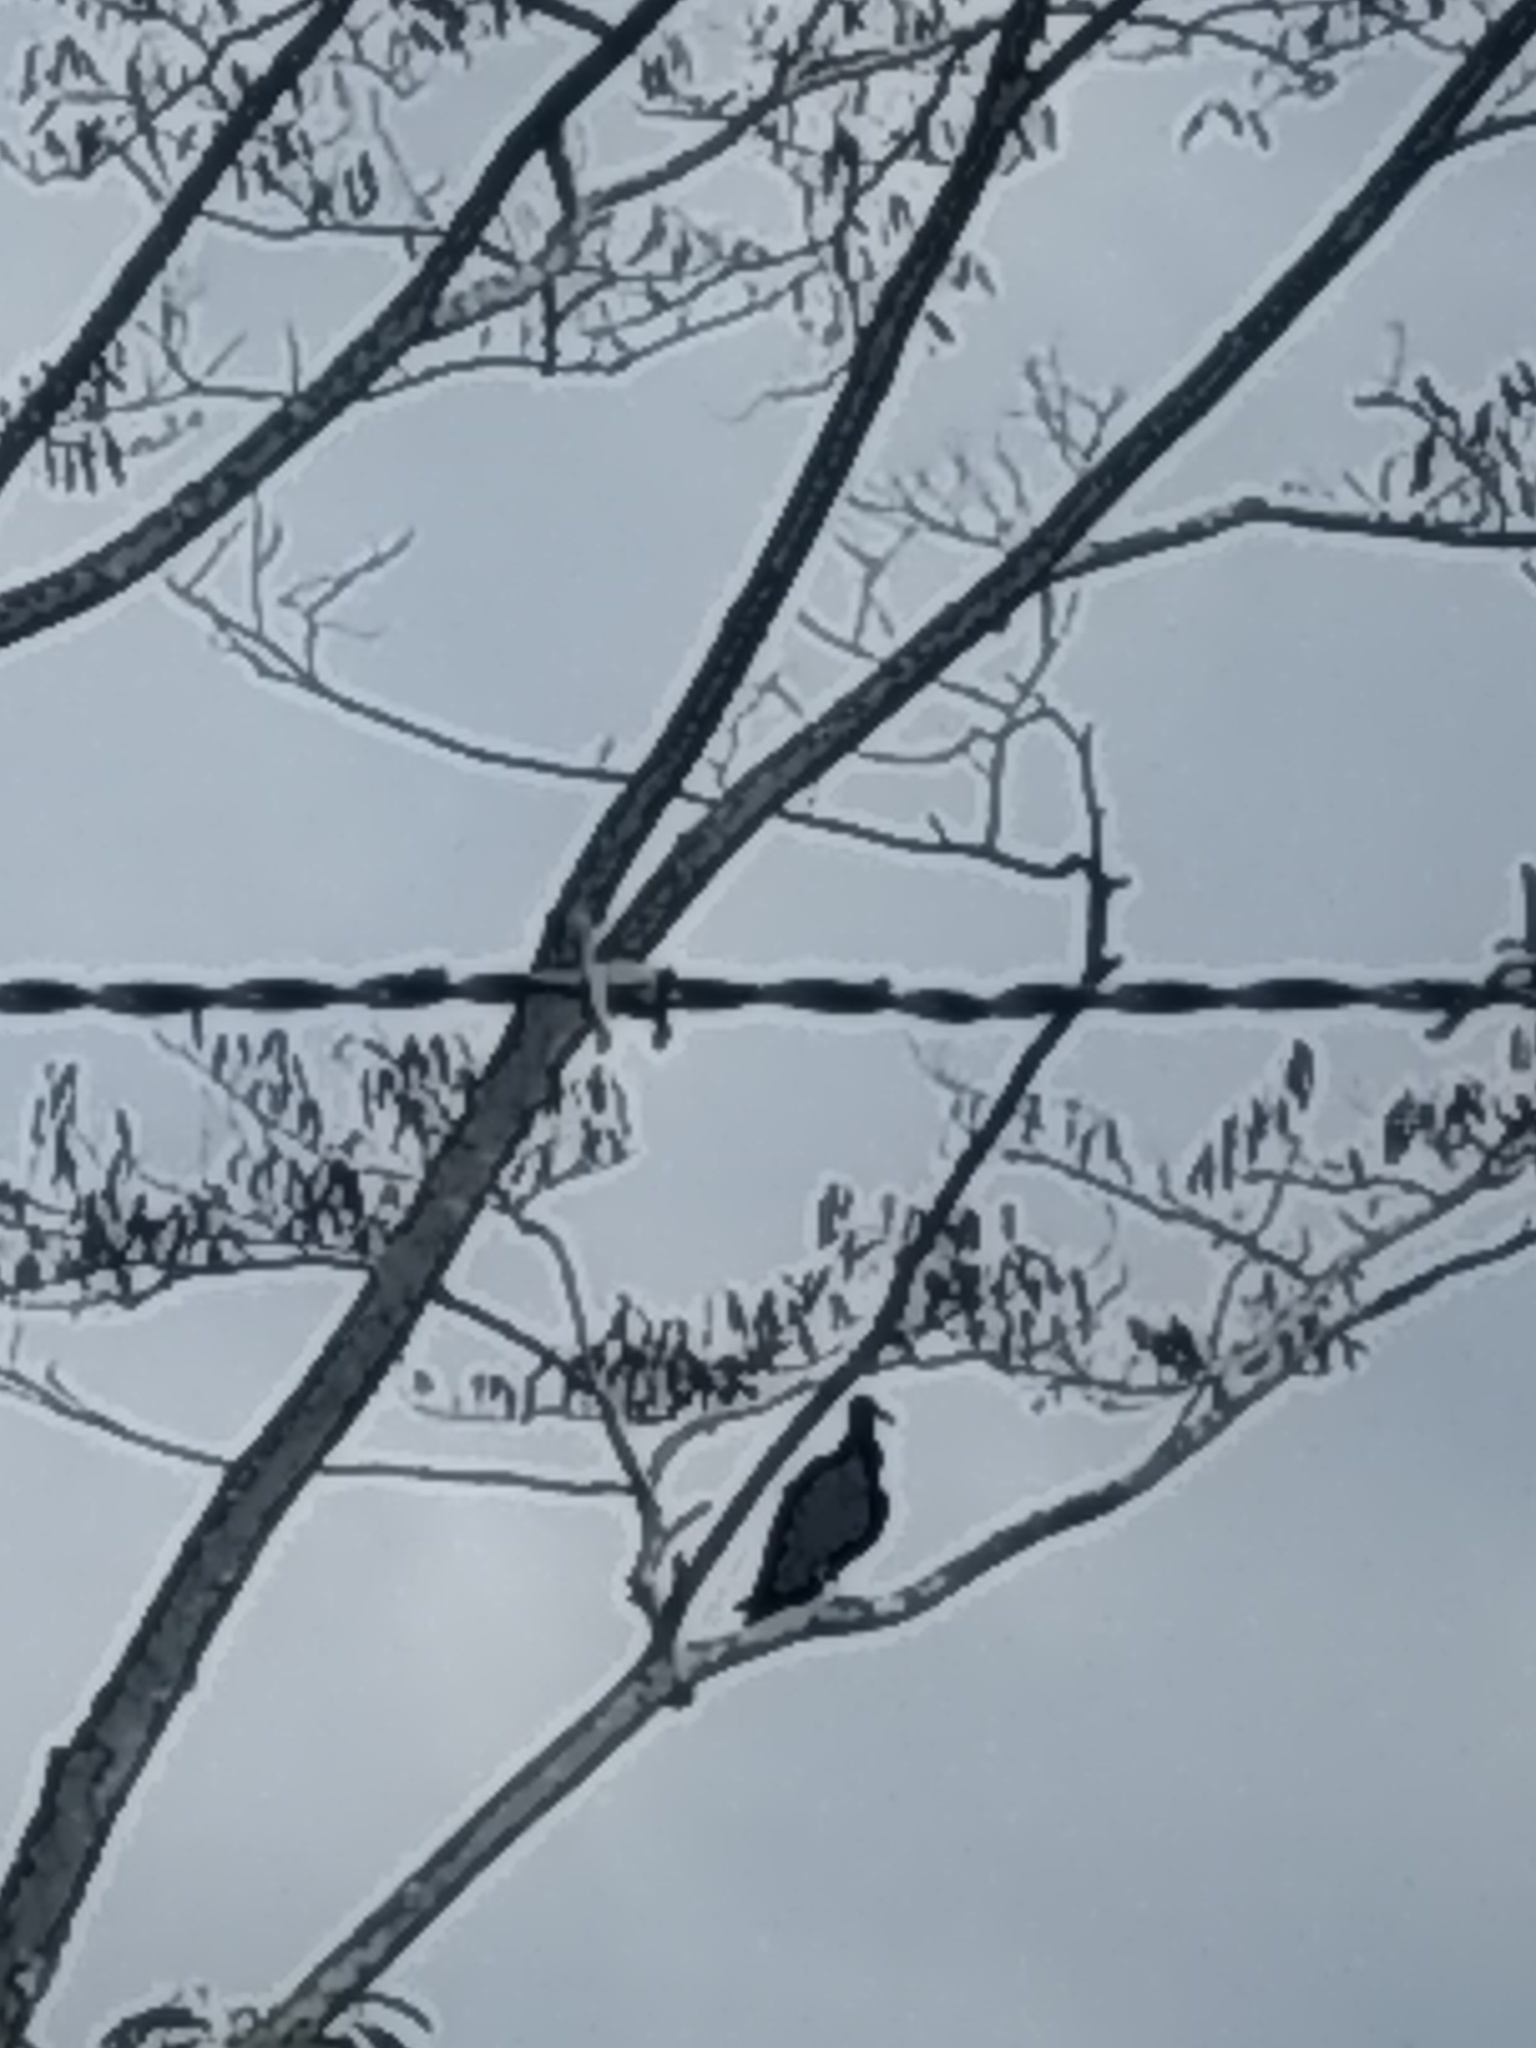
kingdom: Animalia
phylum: Chordata
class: Aves
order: Accipitriformes
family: Cathartidae
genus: Coragyps
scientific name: Coragyps atratus
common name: Black vulture
